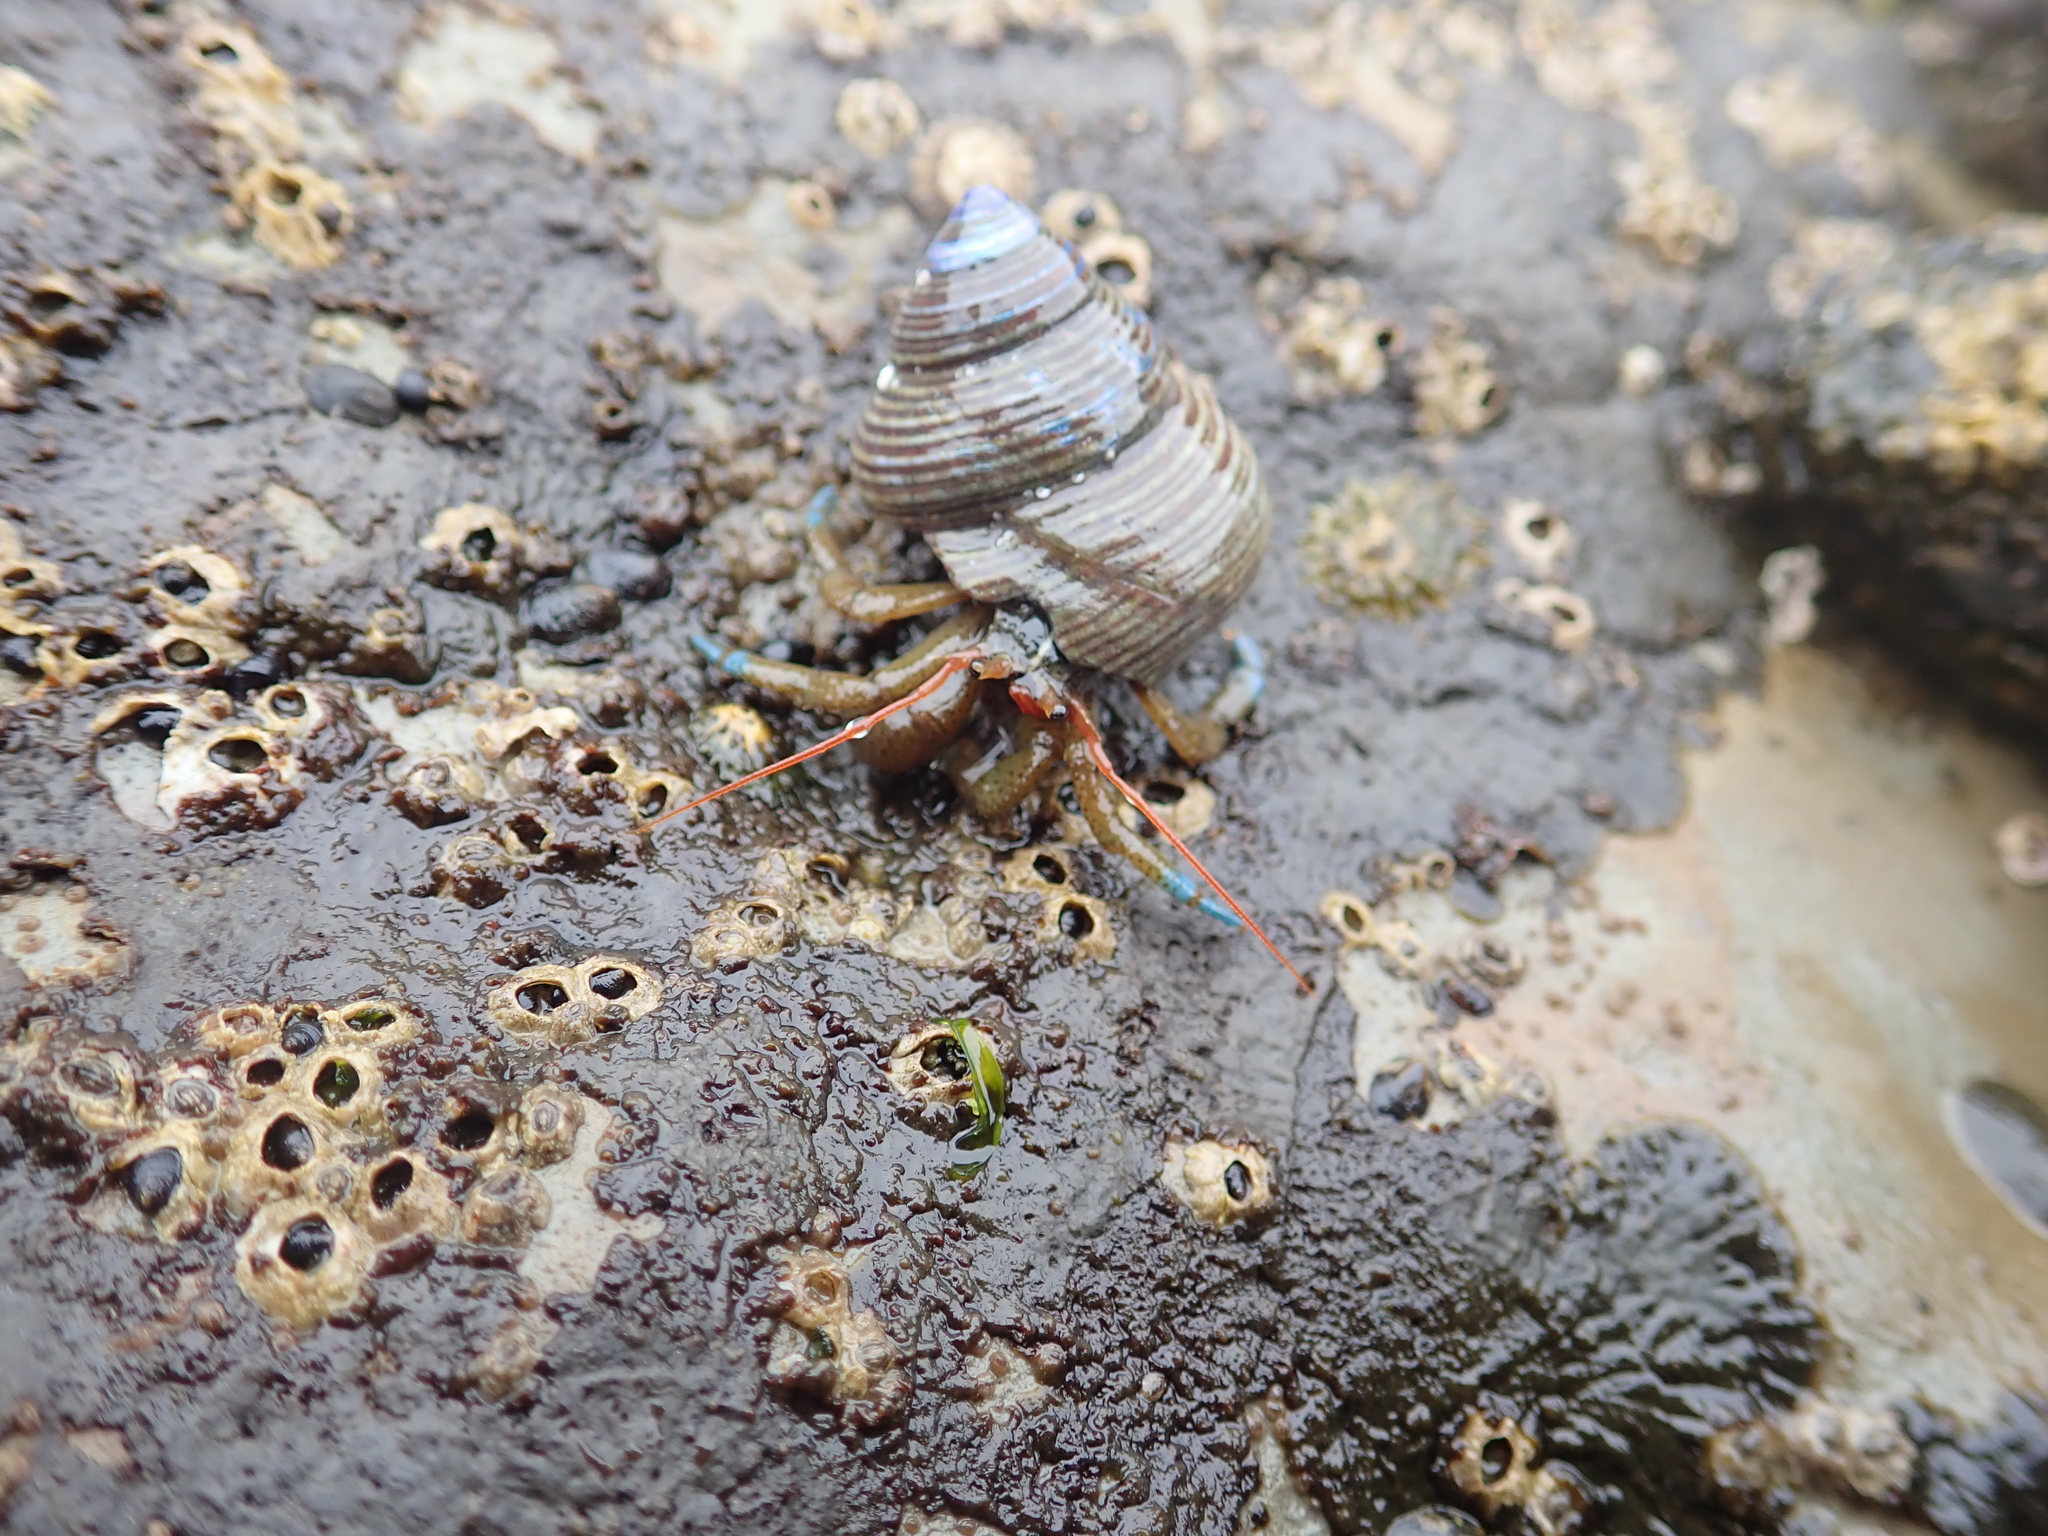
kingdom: Animalia
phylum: Arthropoda
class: Malacostraca
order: Decapoda
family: Paguridae
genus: Pagurus
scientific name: Pagurus samuelis
